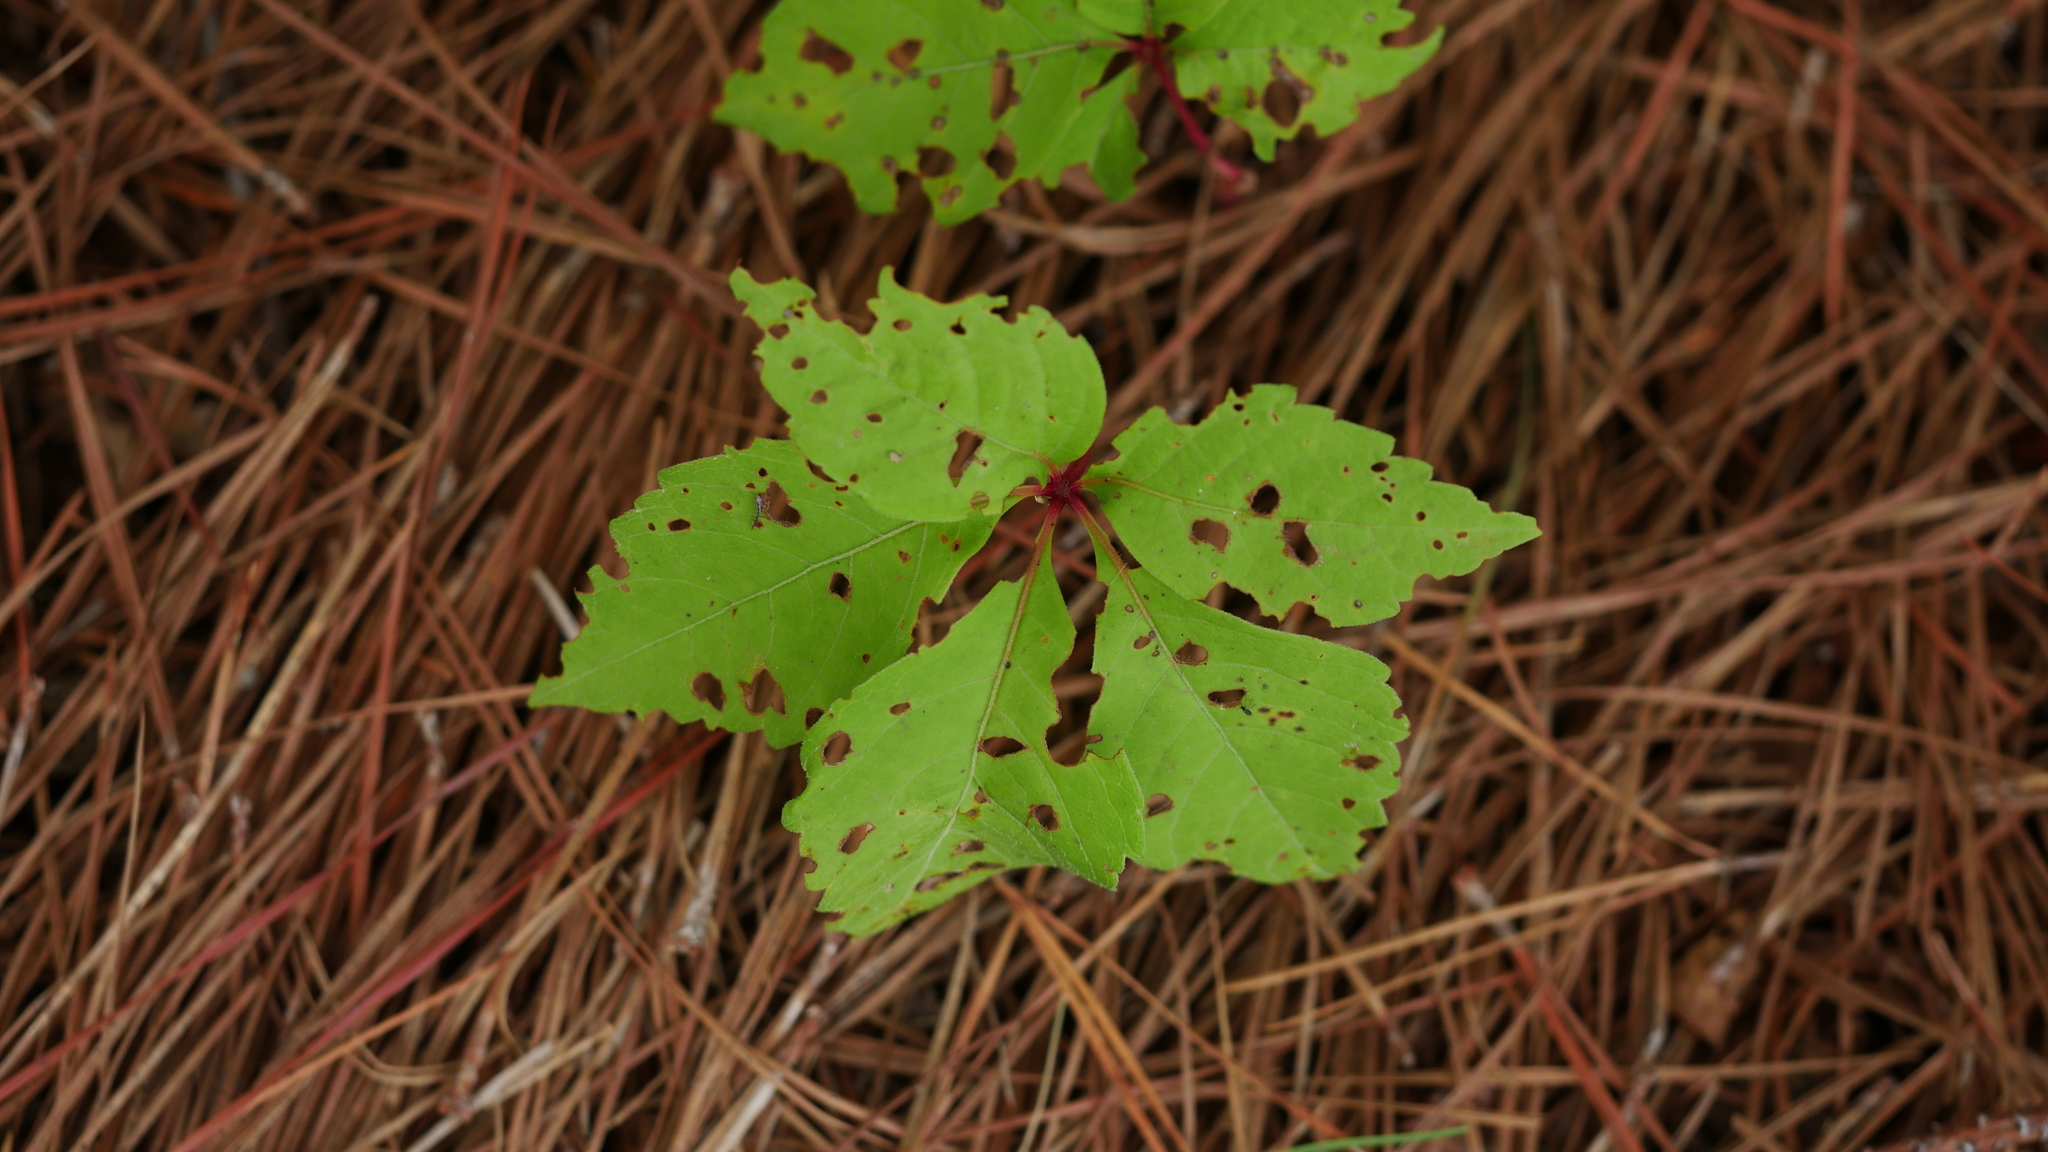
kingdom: Plantae
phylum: Tracheophyta
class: Magnoliopsida
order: Vitales
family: Vitaceae
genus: Parthenocissus
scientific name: Parthenocissus quinquefolia
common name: Virginia-creeper
